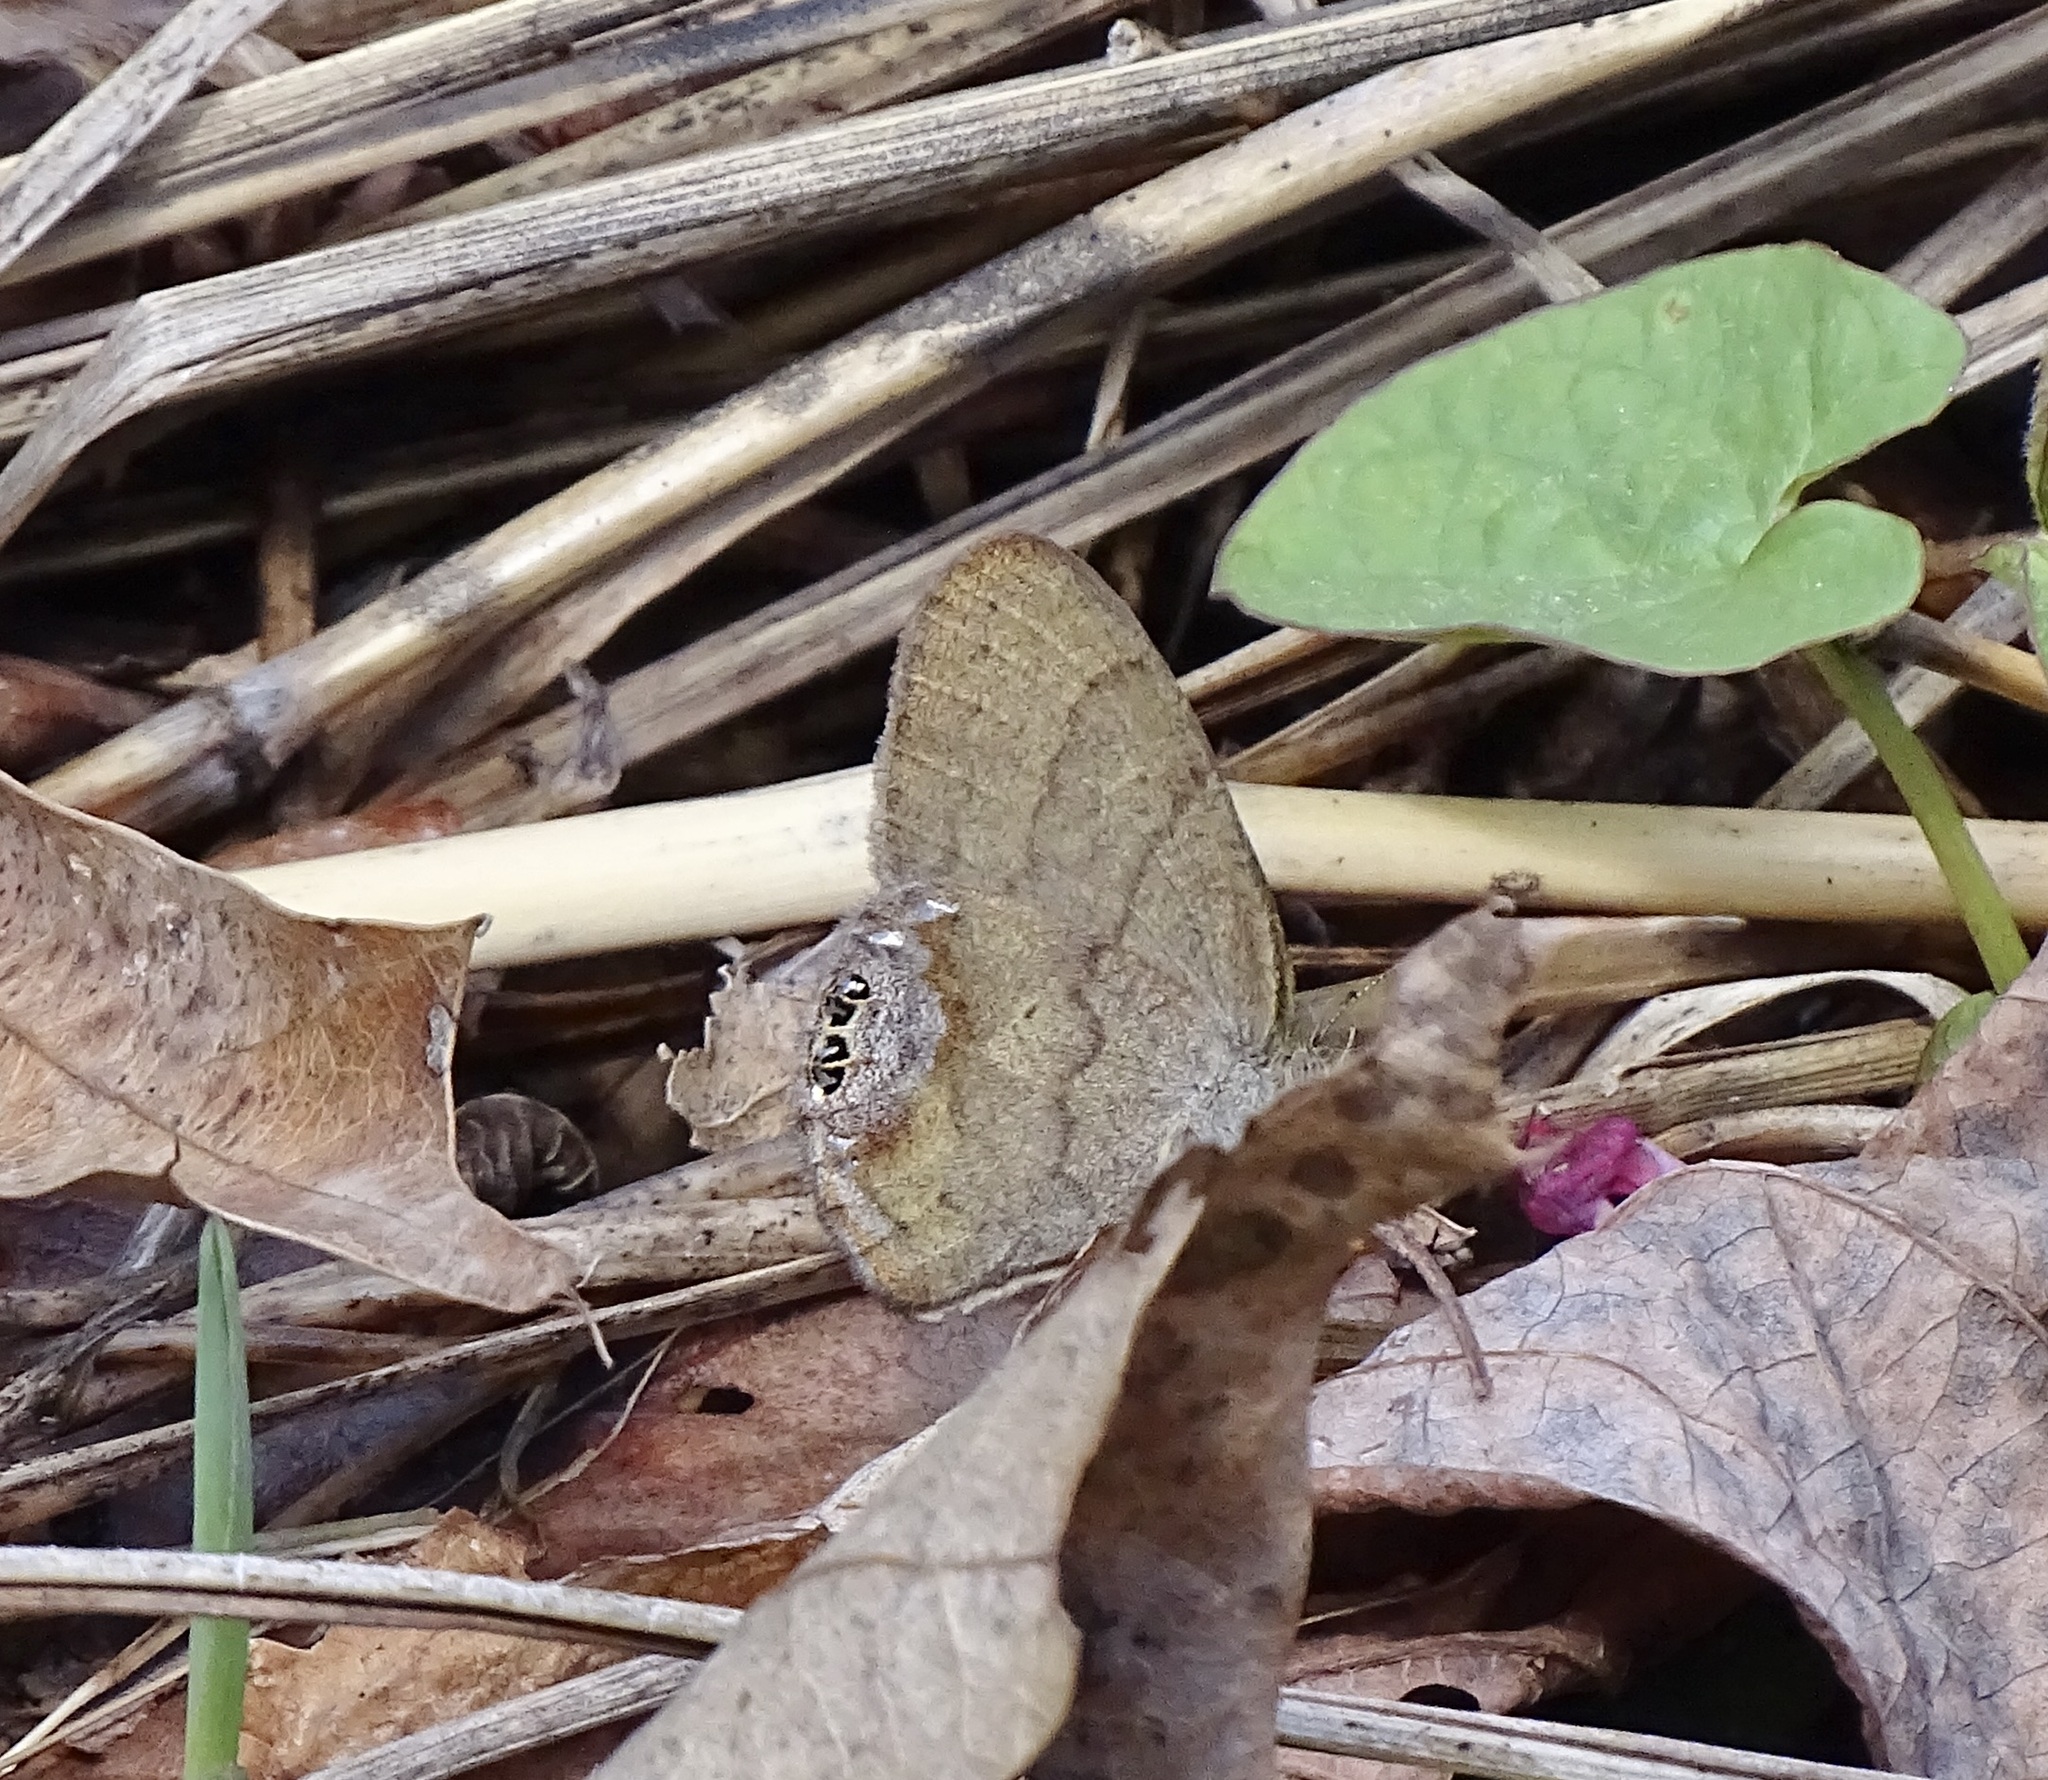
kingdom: Animalia
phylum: Arthropoda
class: Insecta
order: Lepidoptera
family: Nymphalidae
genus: Euptychia
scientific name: Euptychia cornelius
